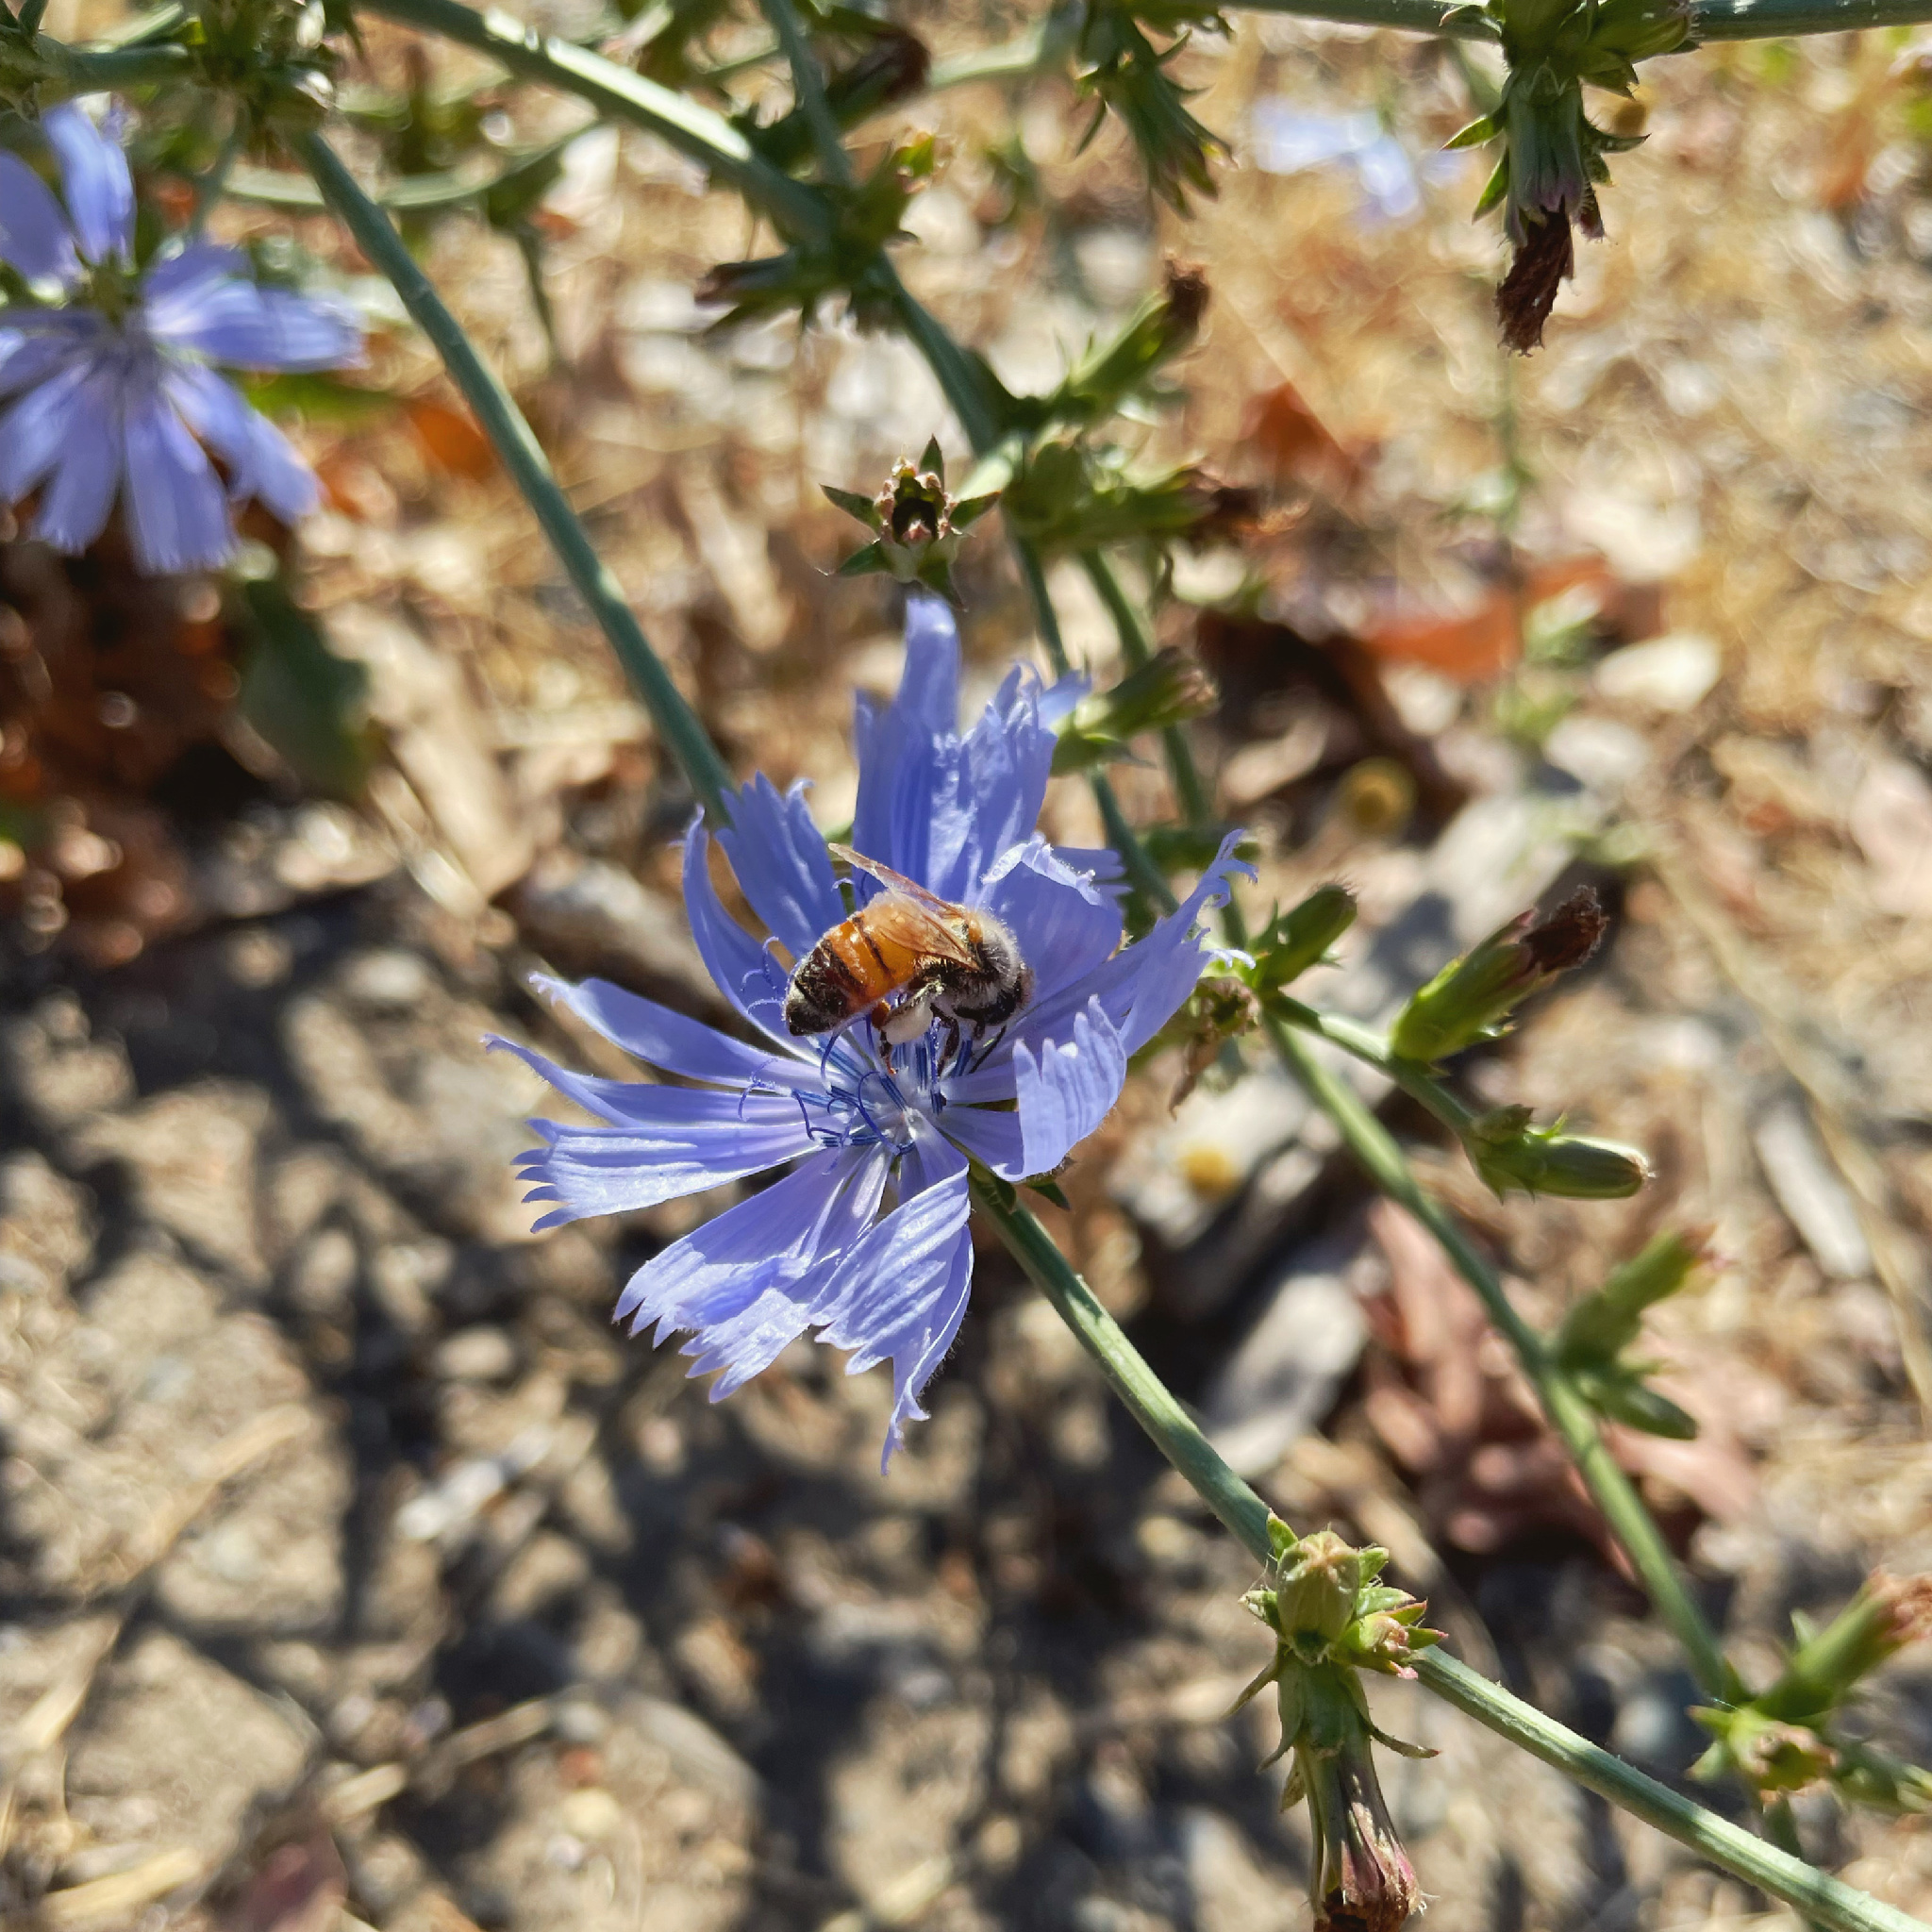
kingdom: Animalia
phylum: Arthropoda
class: Insecta
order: Hymenoptera
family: Apidae
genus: Apis
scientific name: Apis mellifera
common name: Honey bee
